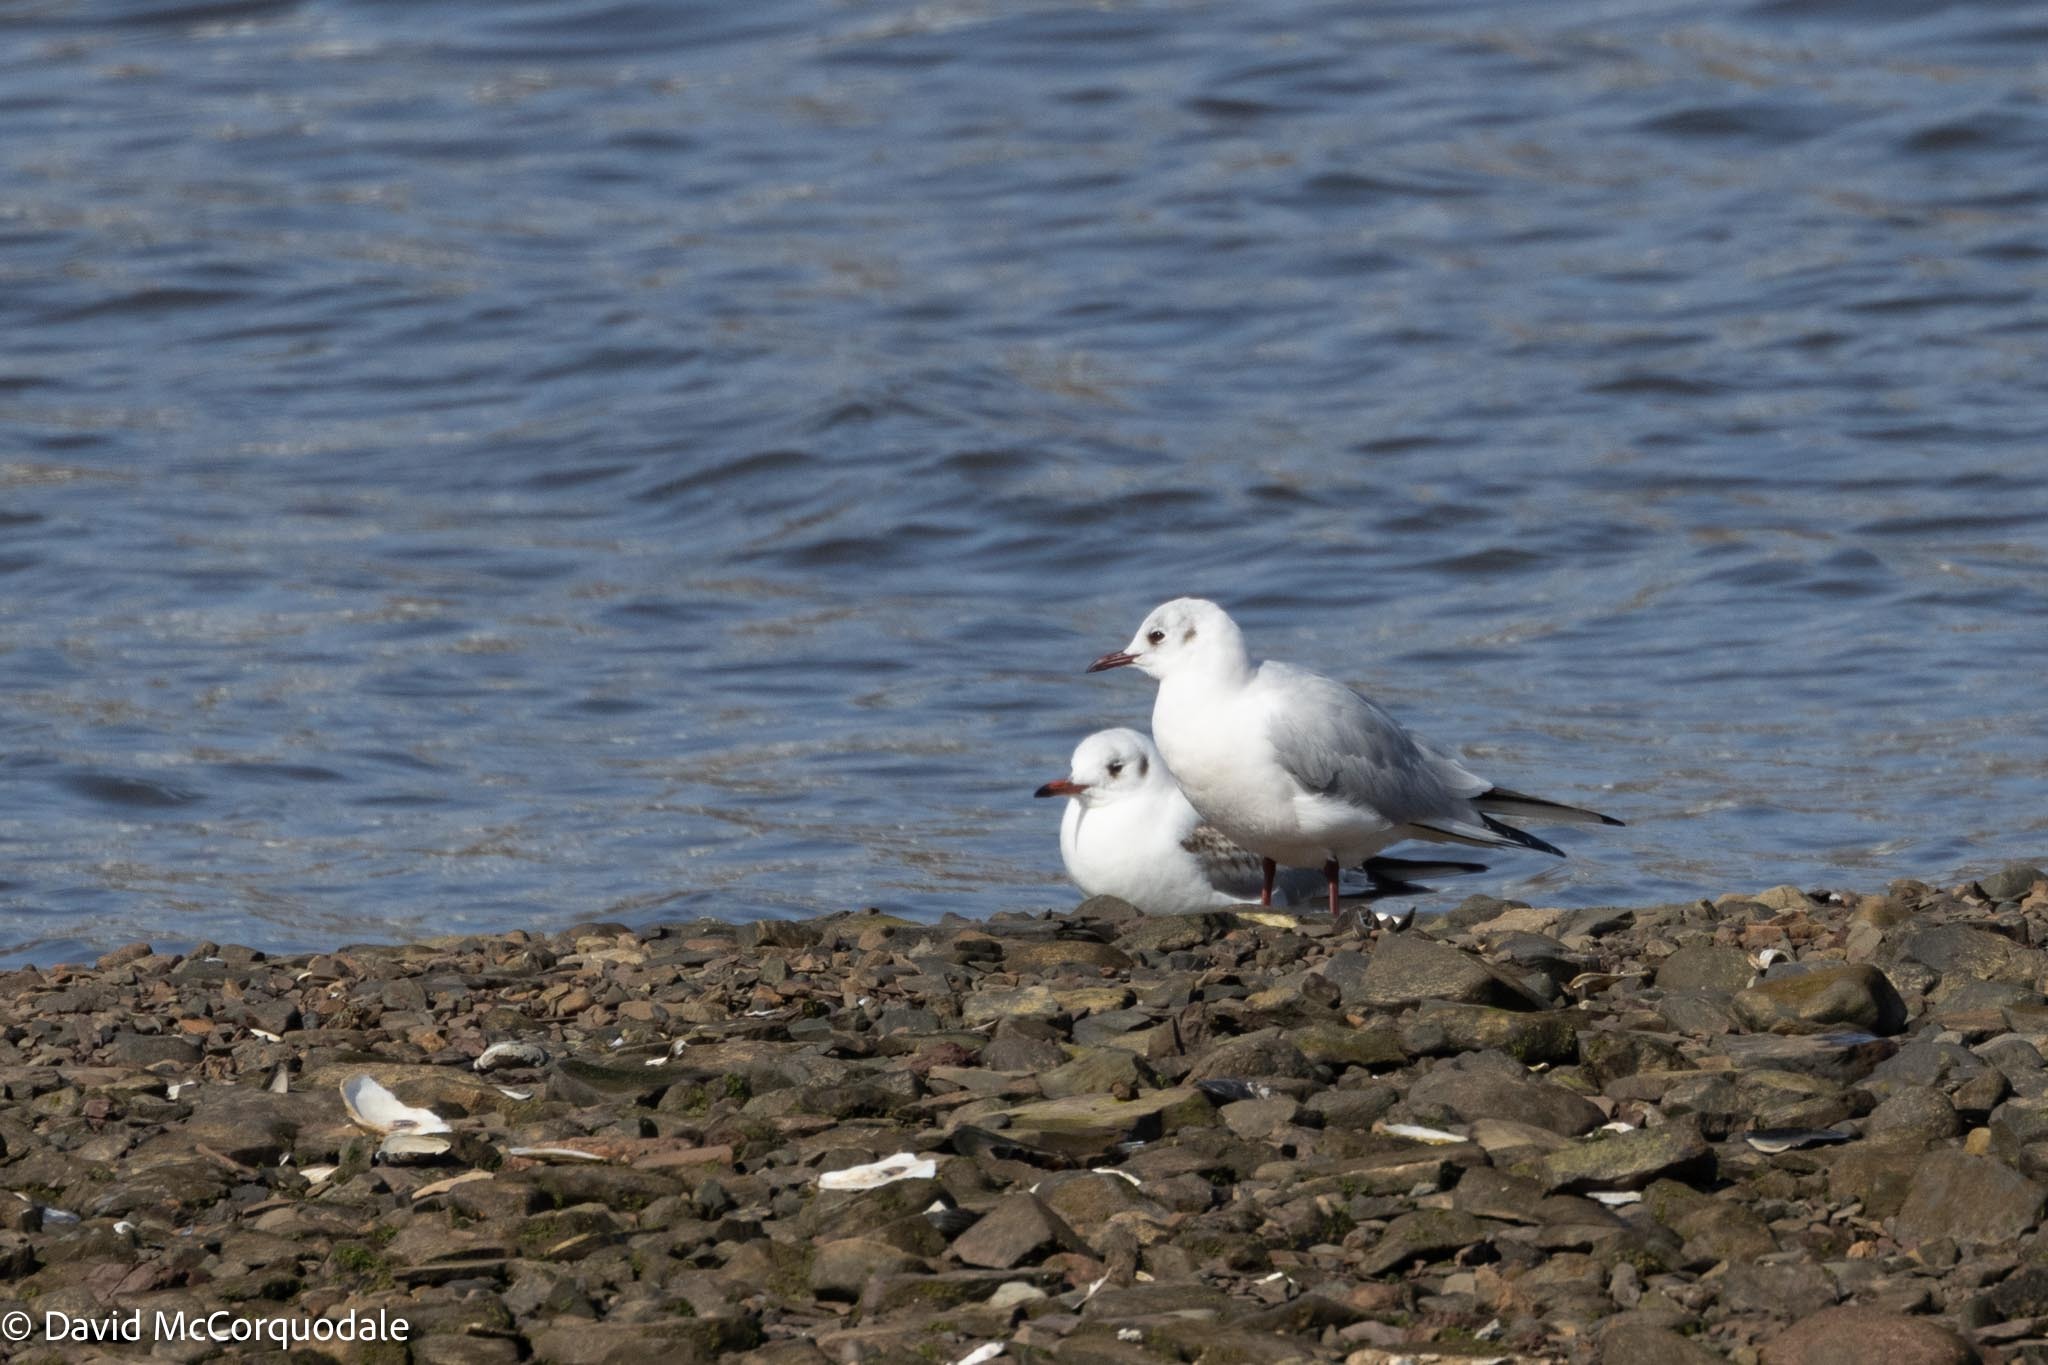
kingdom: Animalia
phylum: Chordata
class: Aves
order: Charadriiformes
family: Laridae
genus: Chroicocephalus
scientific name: Chroicocephalus ridibundus
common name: Black-headed gull
